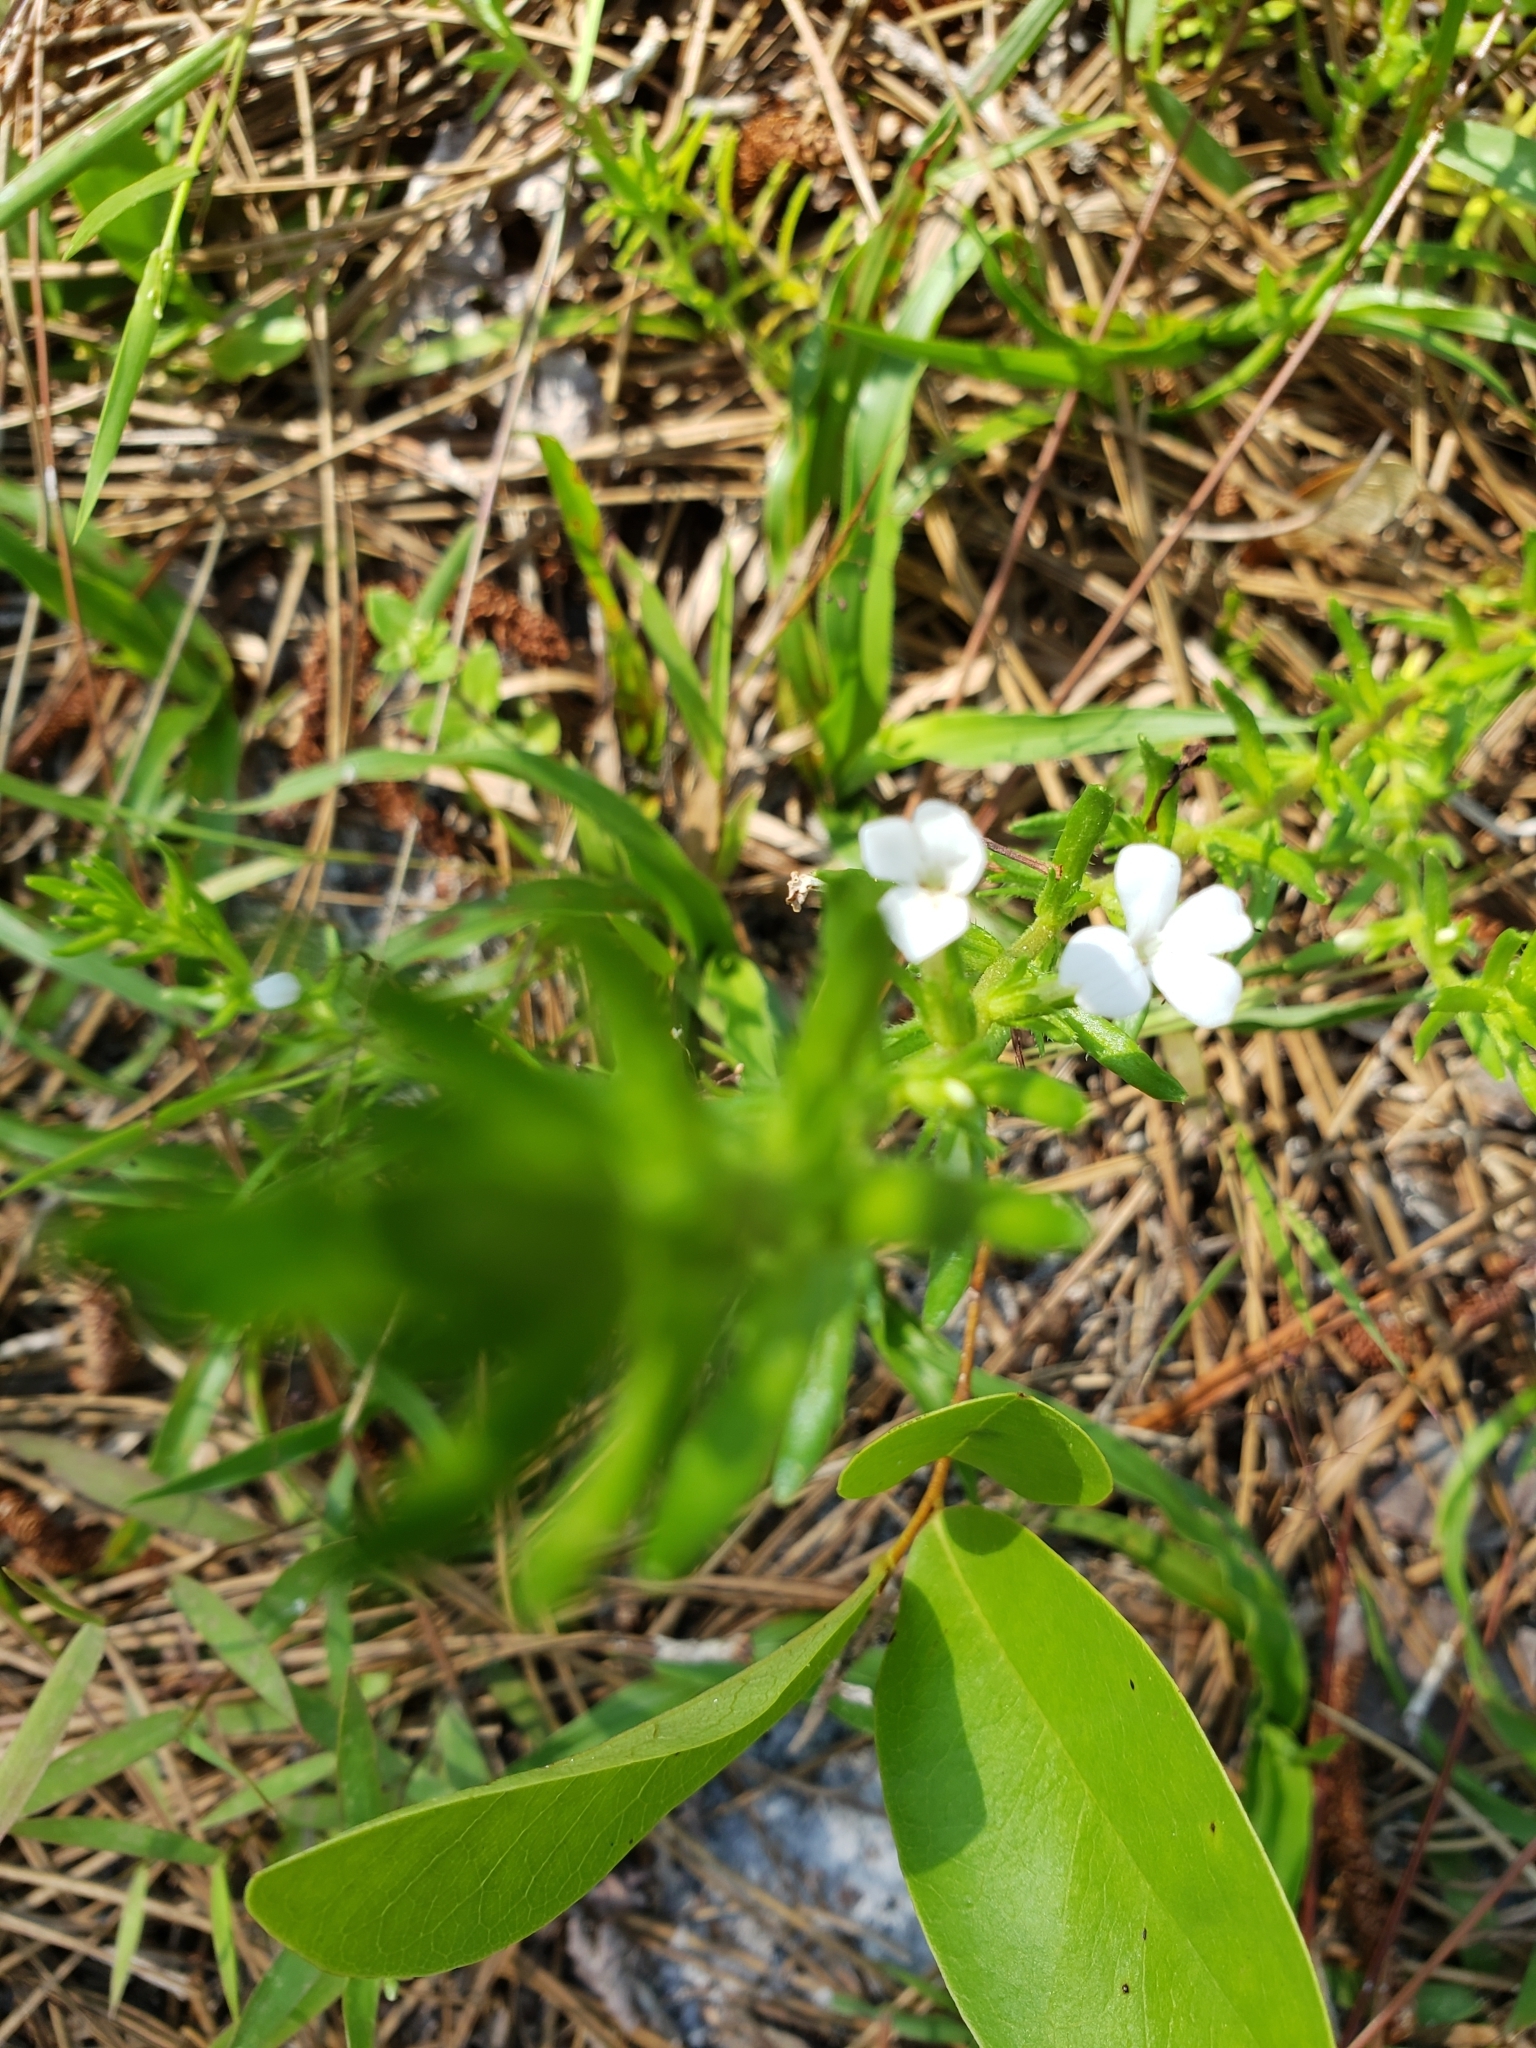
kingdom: Plantae
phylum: Tracheophyta
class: Magnoliopsida
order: Lamiales
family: Plantaginaceae
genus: Gratiola
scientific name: Gratiola hispida
